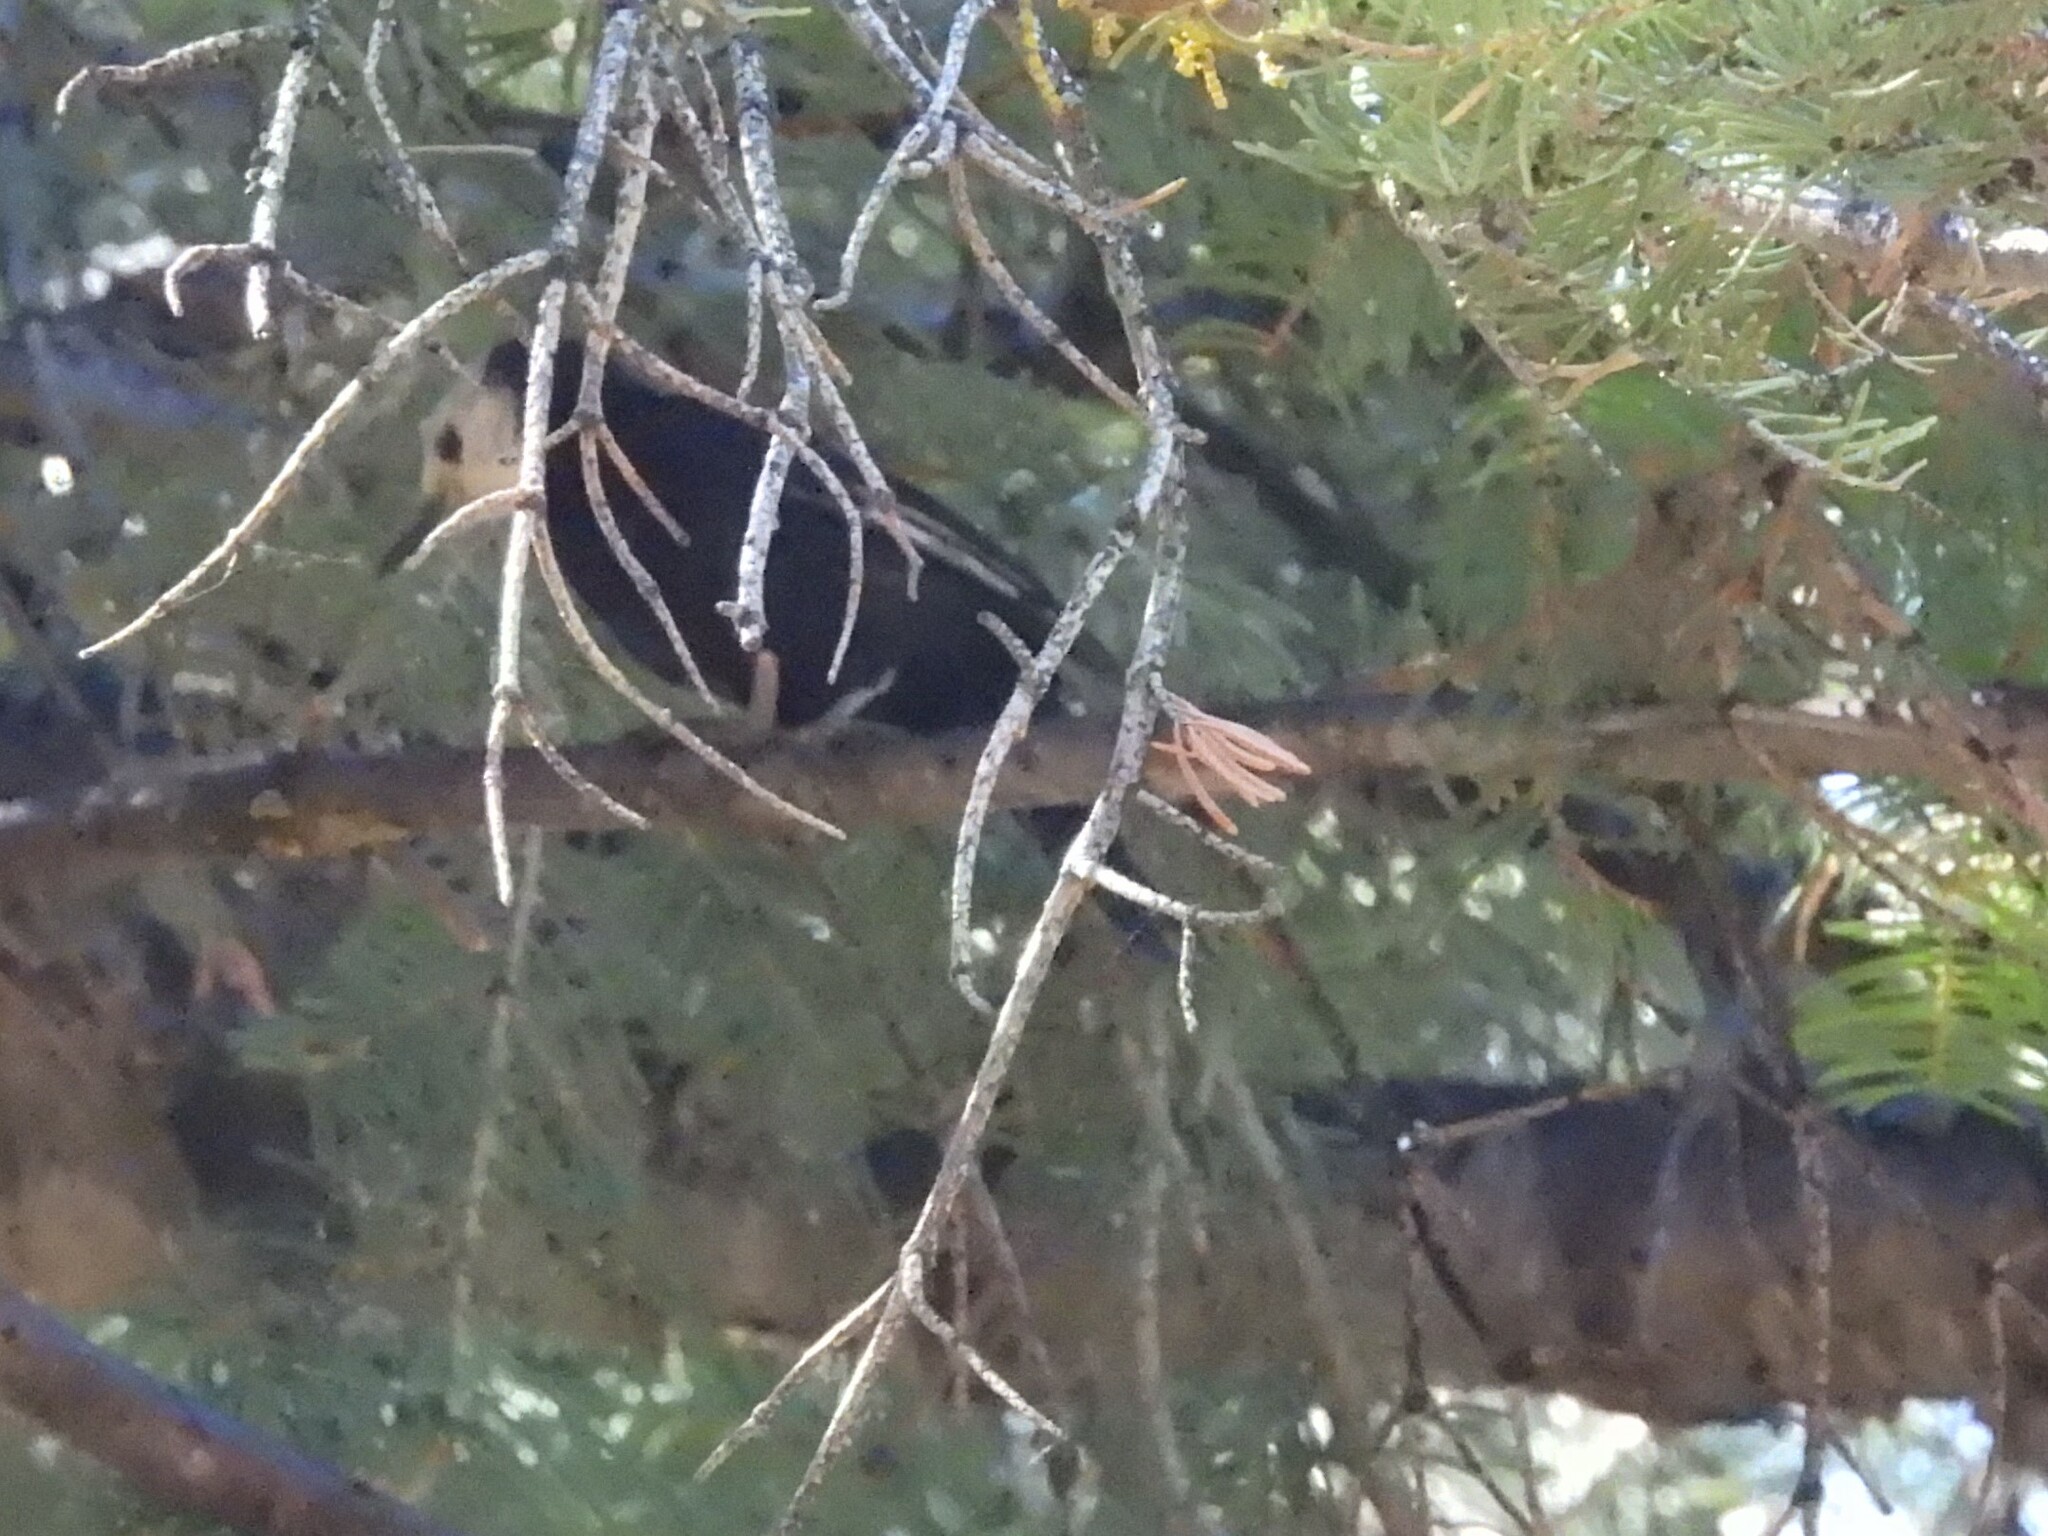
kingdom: Animalia
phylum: Chordata
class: Aves
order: Piciformes
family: Picidae
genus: Leuconotopicus
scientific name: Leuconotopicus albolarvatus
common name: White-headed woodpecker
